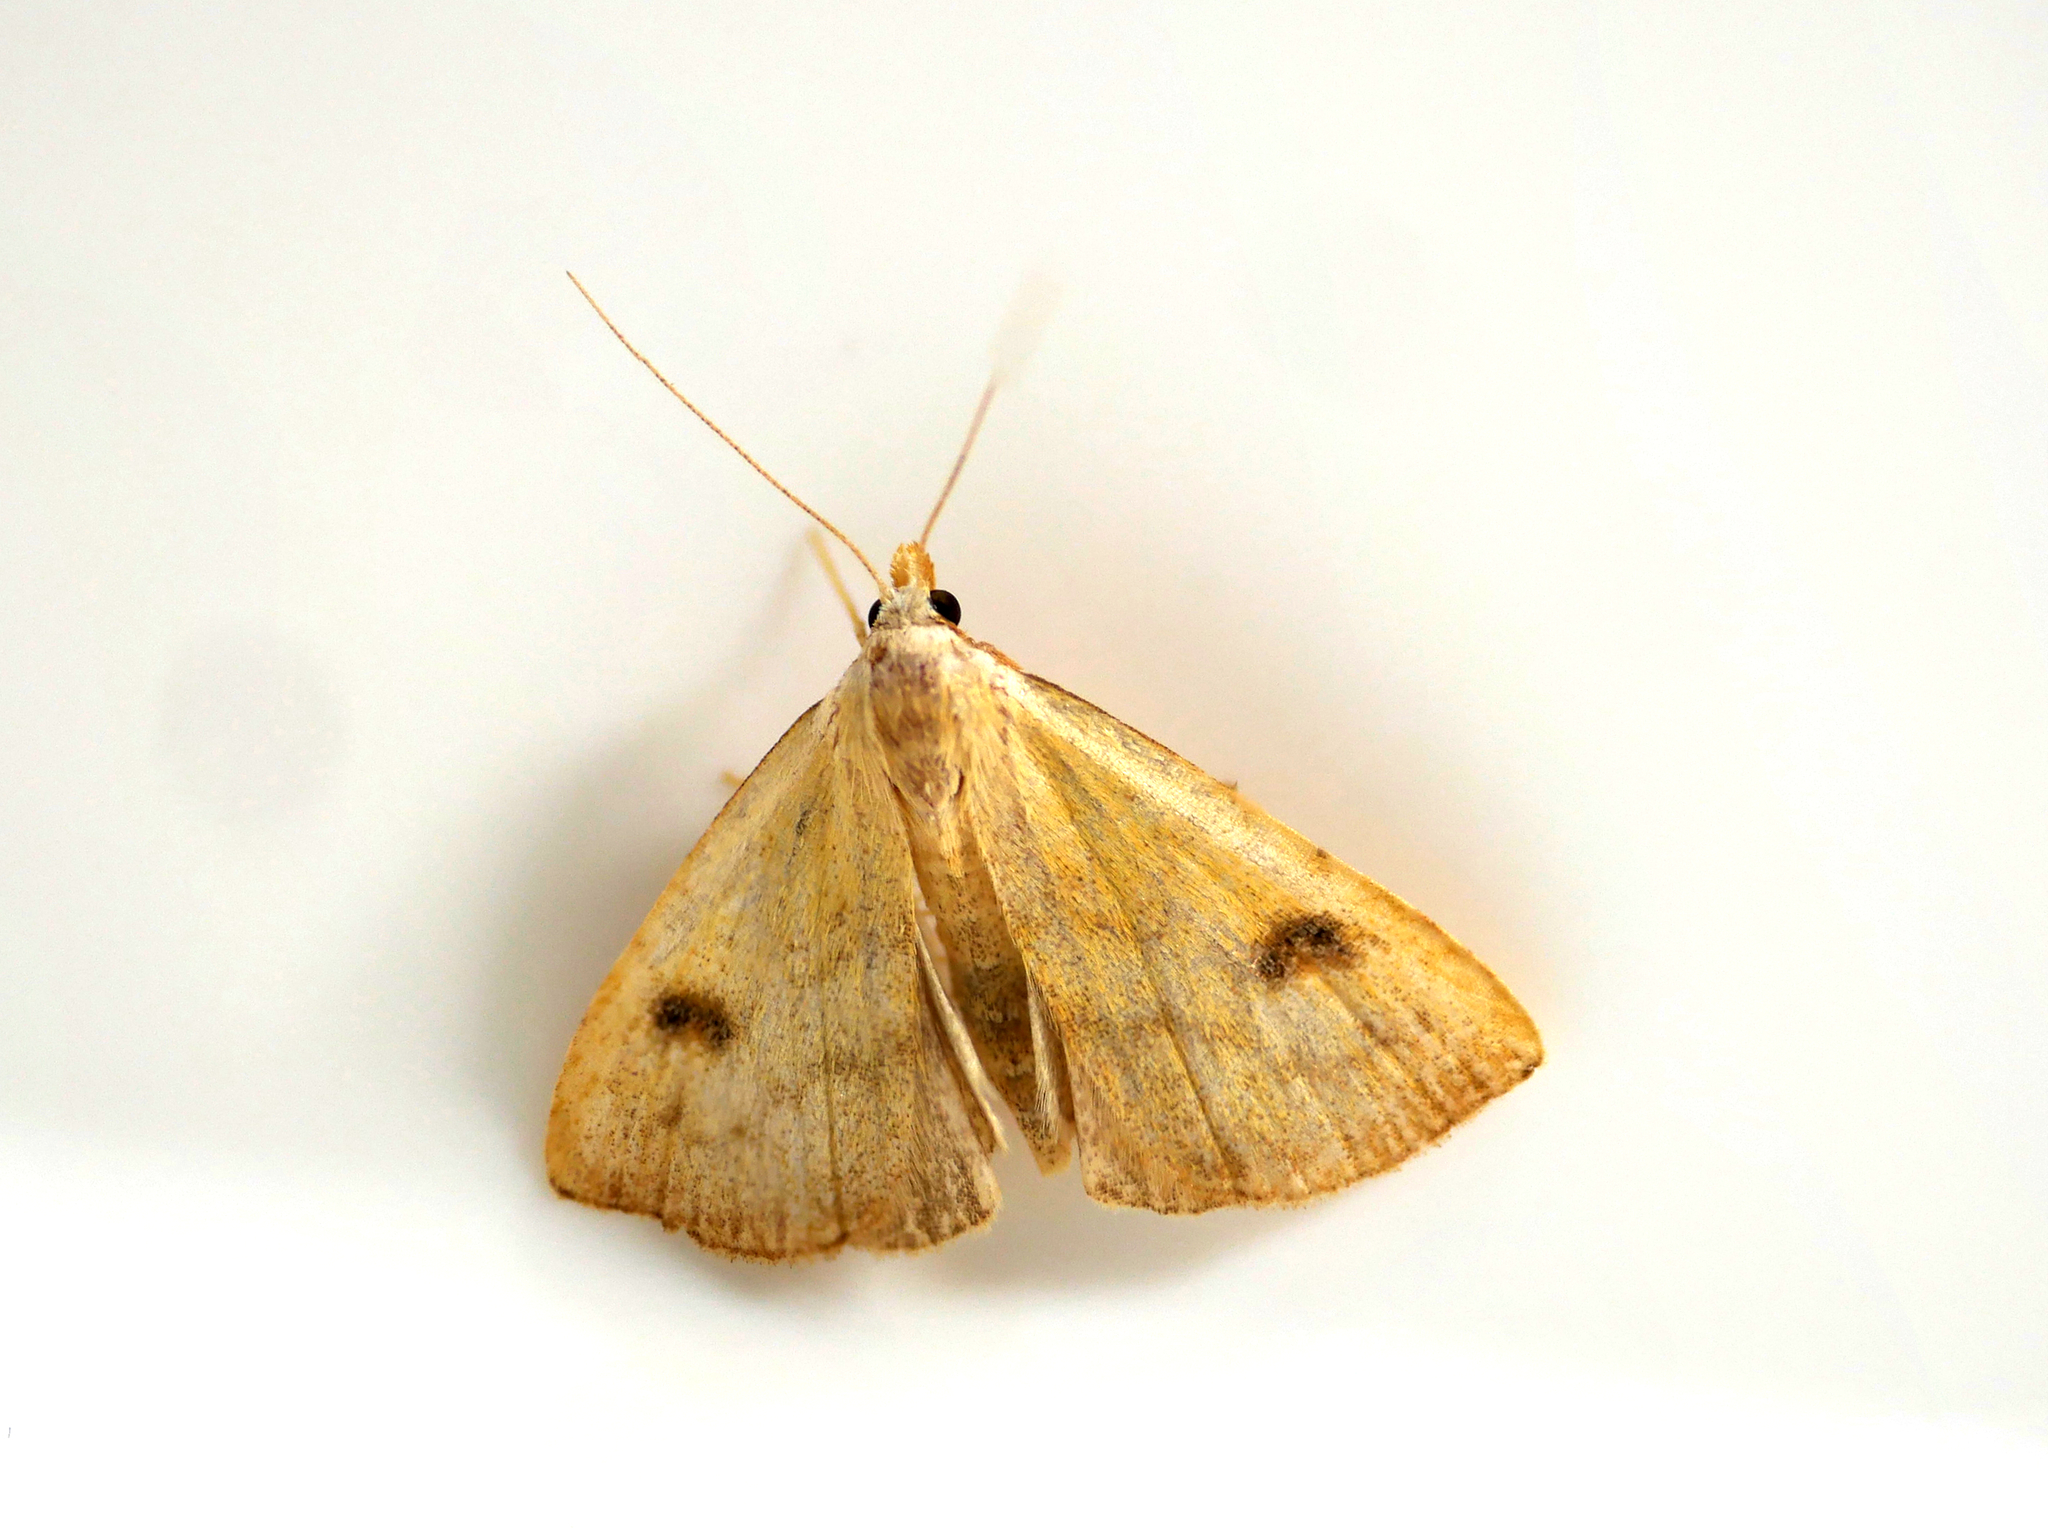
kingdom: Animalia
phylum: Arthropoda
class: Insecta
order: Lepidoptera
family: Erebidae
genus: Rivula
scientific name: Rivula sericealis
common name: Straw dot
